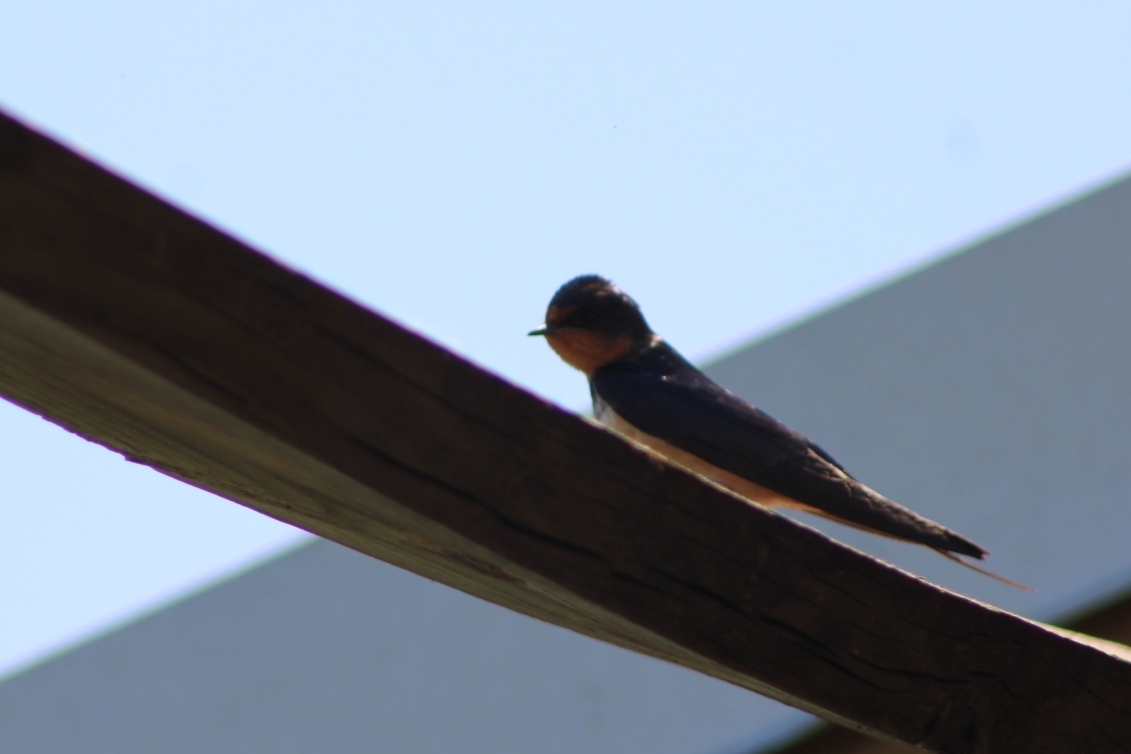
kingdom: Animalia
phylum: Chordata
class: Aves
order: Passeriformes
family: Hirundinidae
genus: Hirundo
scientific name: Hirundo rustica
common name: Barn swallow
